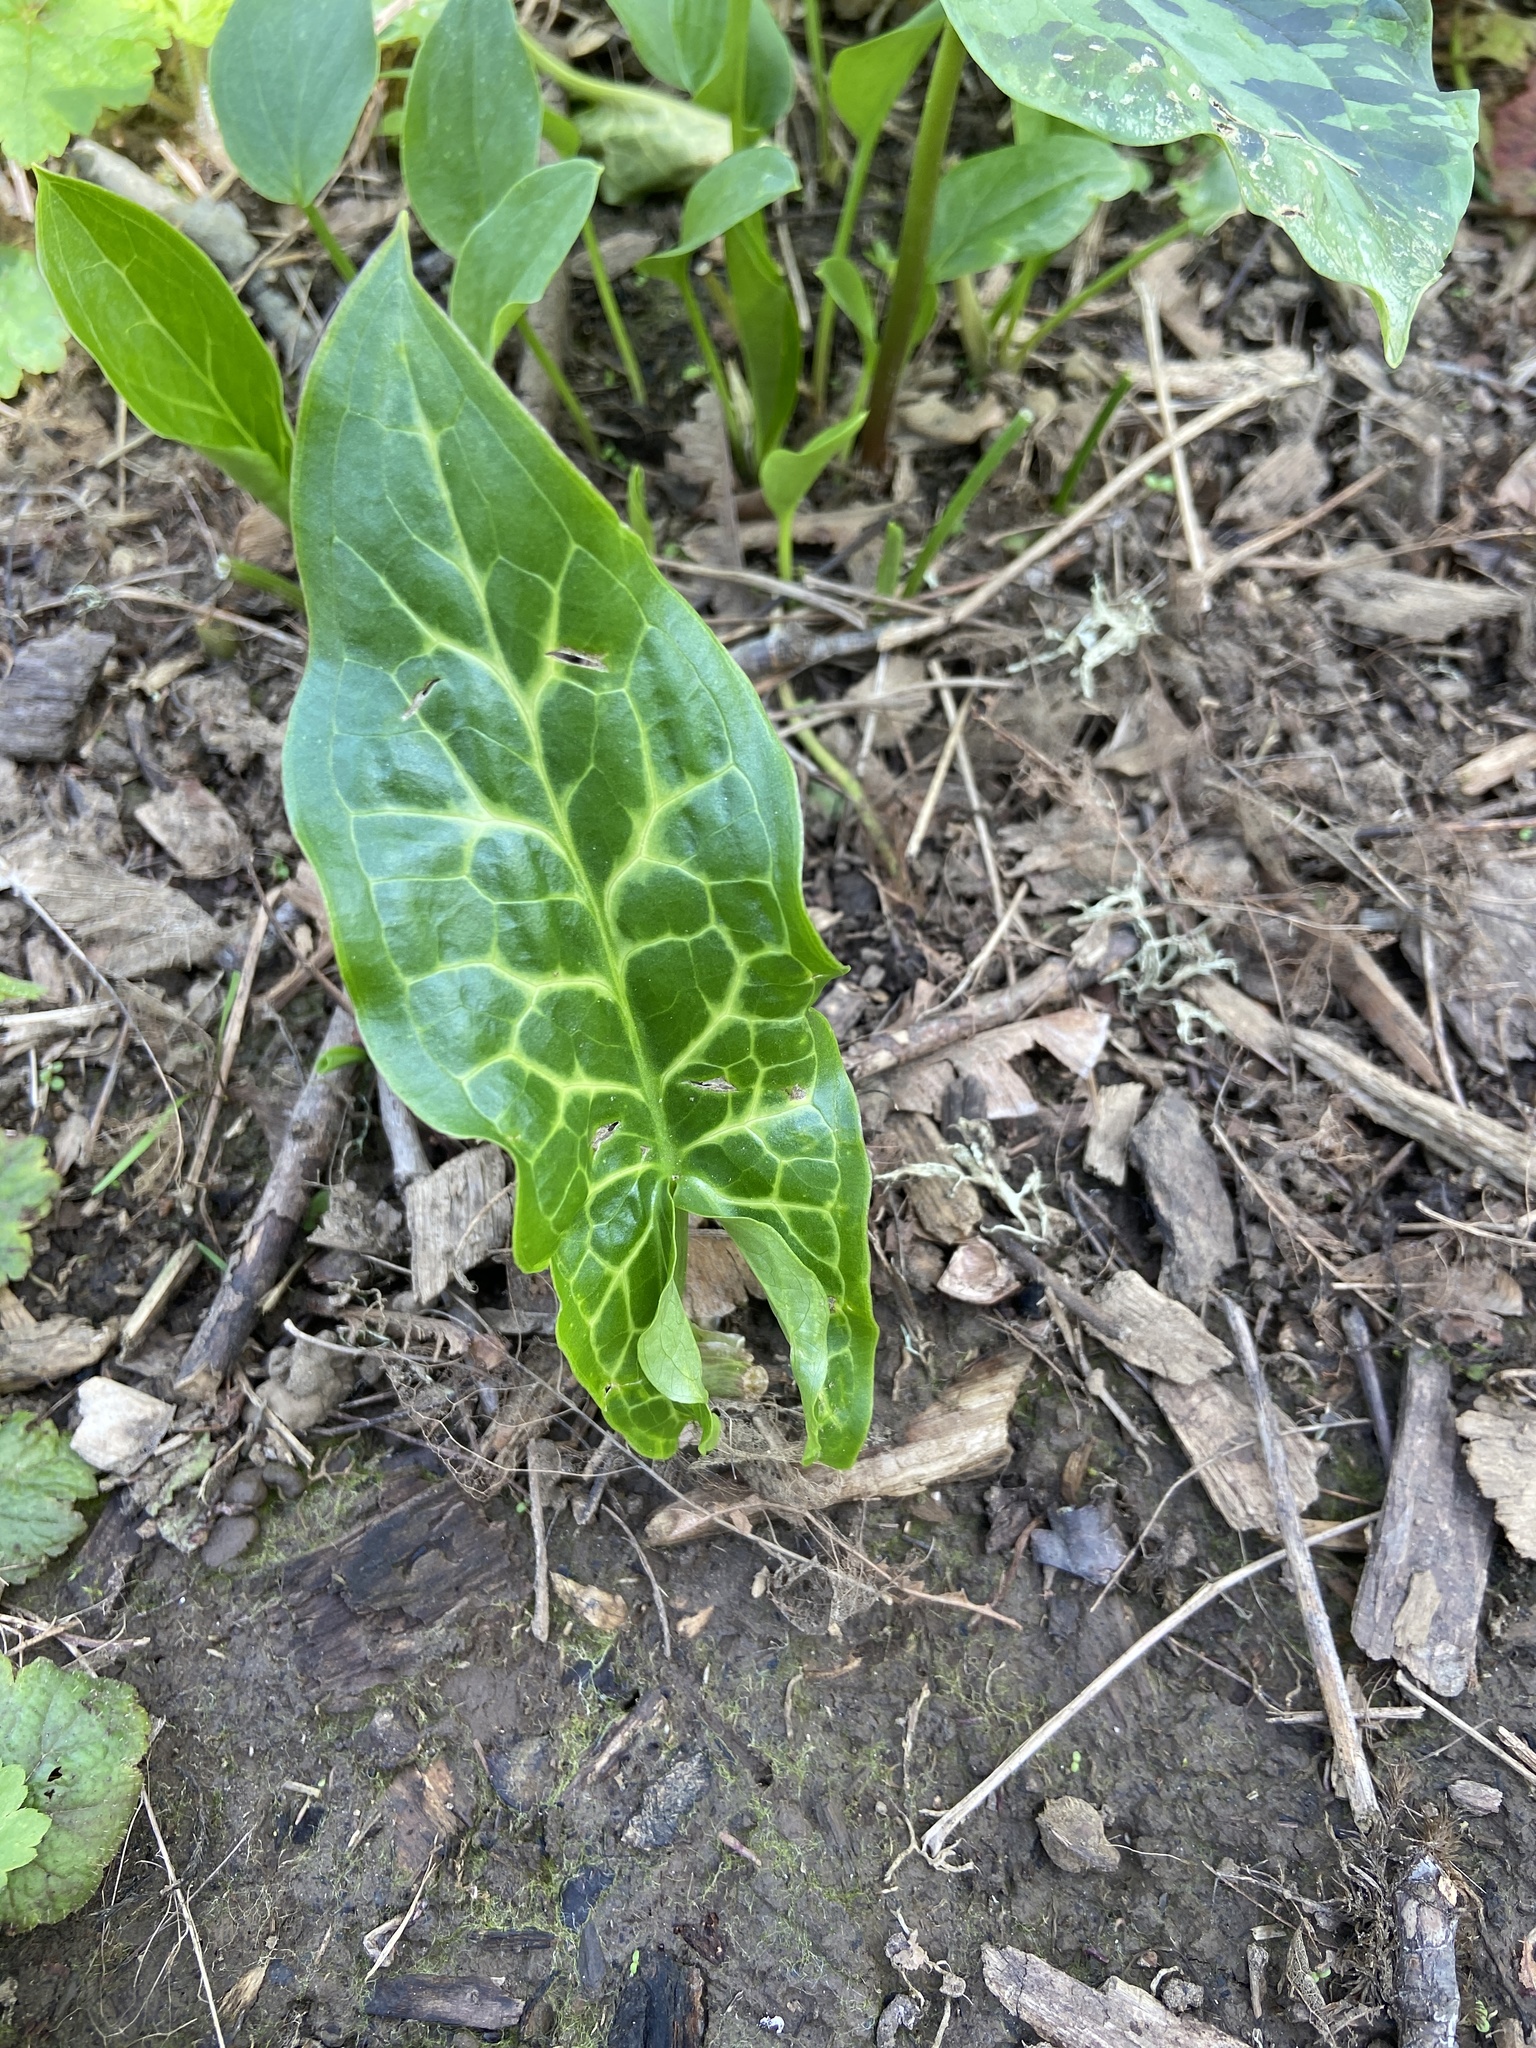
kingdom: Plantae
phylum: Tracheophyta
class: Liliopsida
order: Alismatales
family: Araceae
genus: Arum
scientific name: Arum italicum
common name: Italian lords-and-ladies
